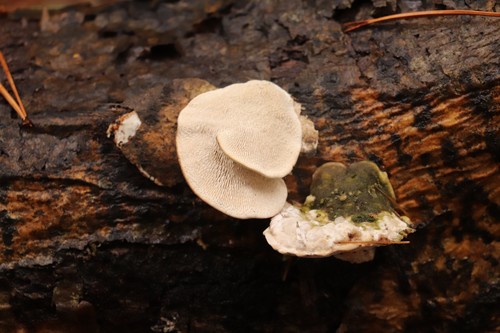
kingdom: Fungi
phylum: Basidiomycota
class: Agaricomycetes
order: Polyporales
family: Polyporaceae
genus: Trametes
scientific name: Trametes gibbosa
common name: Lumpy bracket
